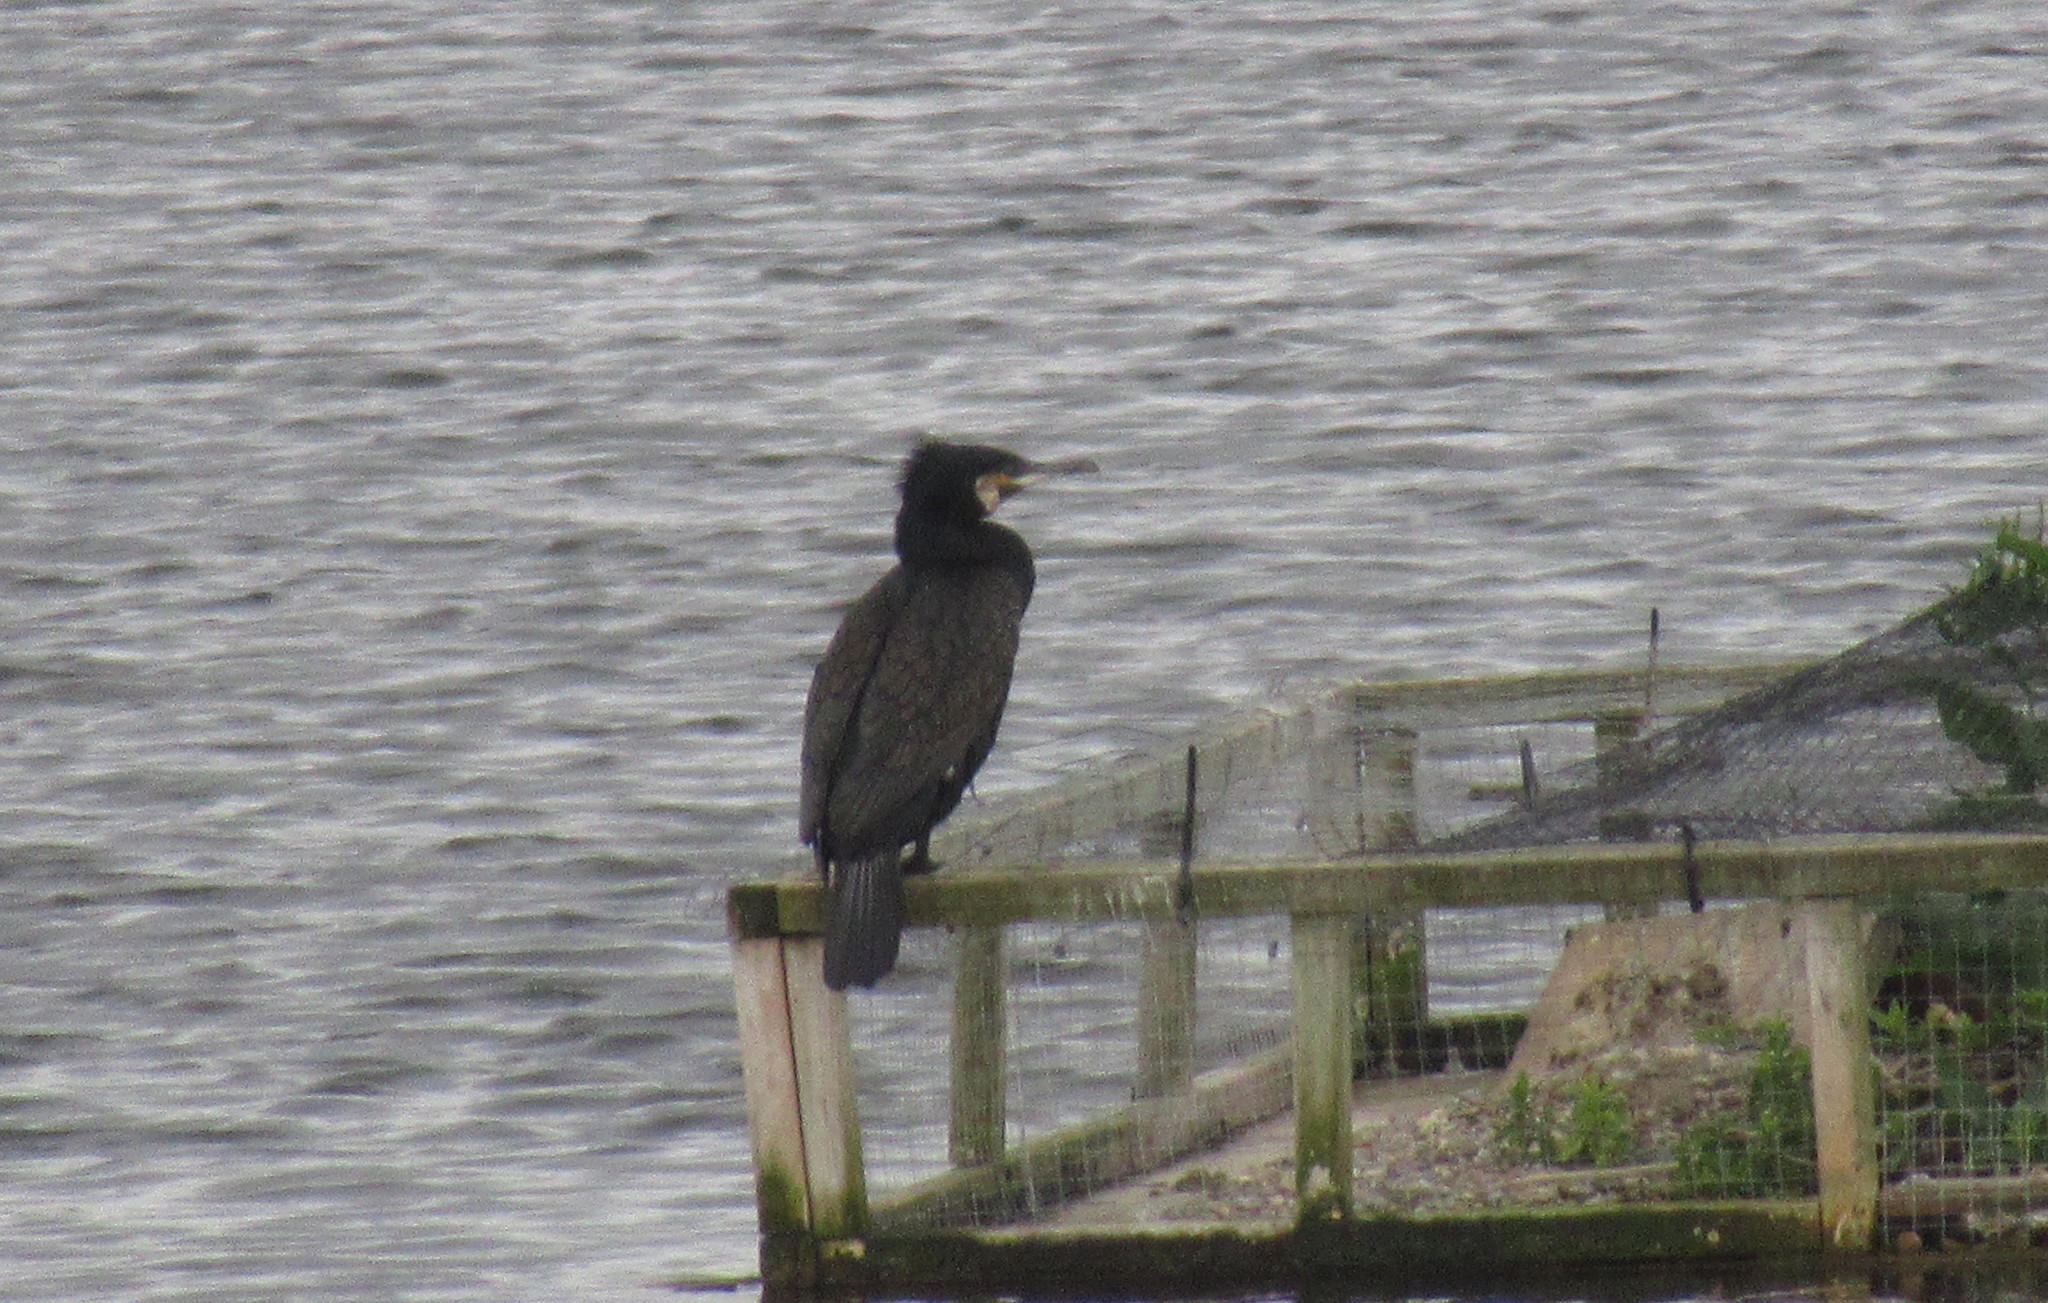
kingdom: Animalia
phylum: Chordata
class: Aves
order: Suliformes
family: Phalacrocoracidae
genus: Phalacrocorax
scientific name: Phalacrocorax carbo
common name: Great cormorant
